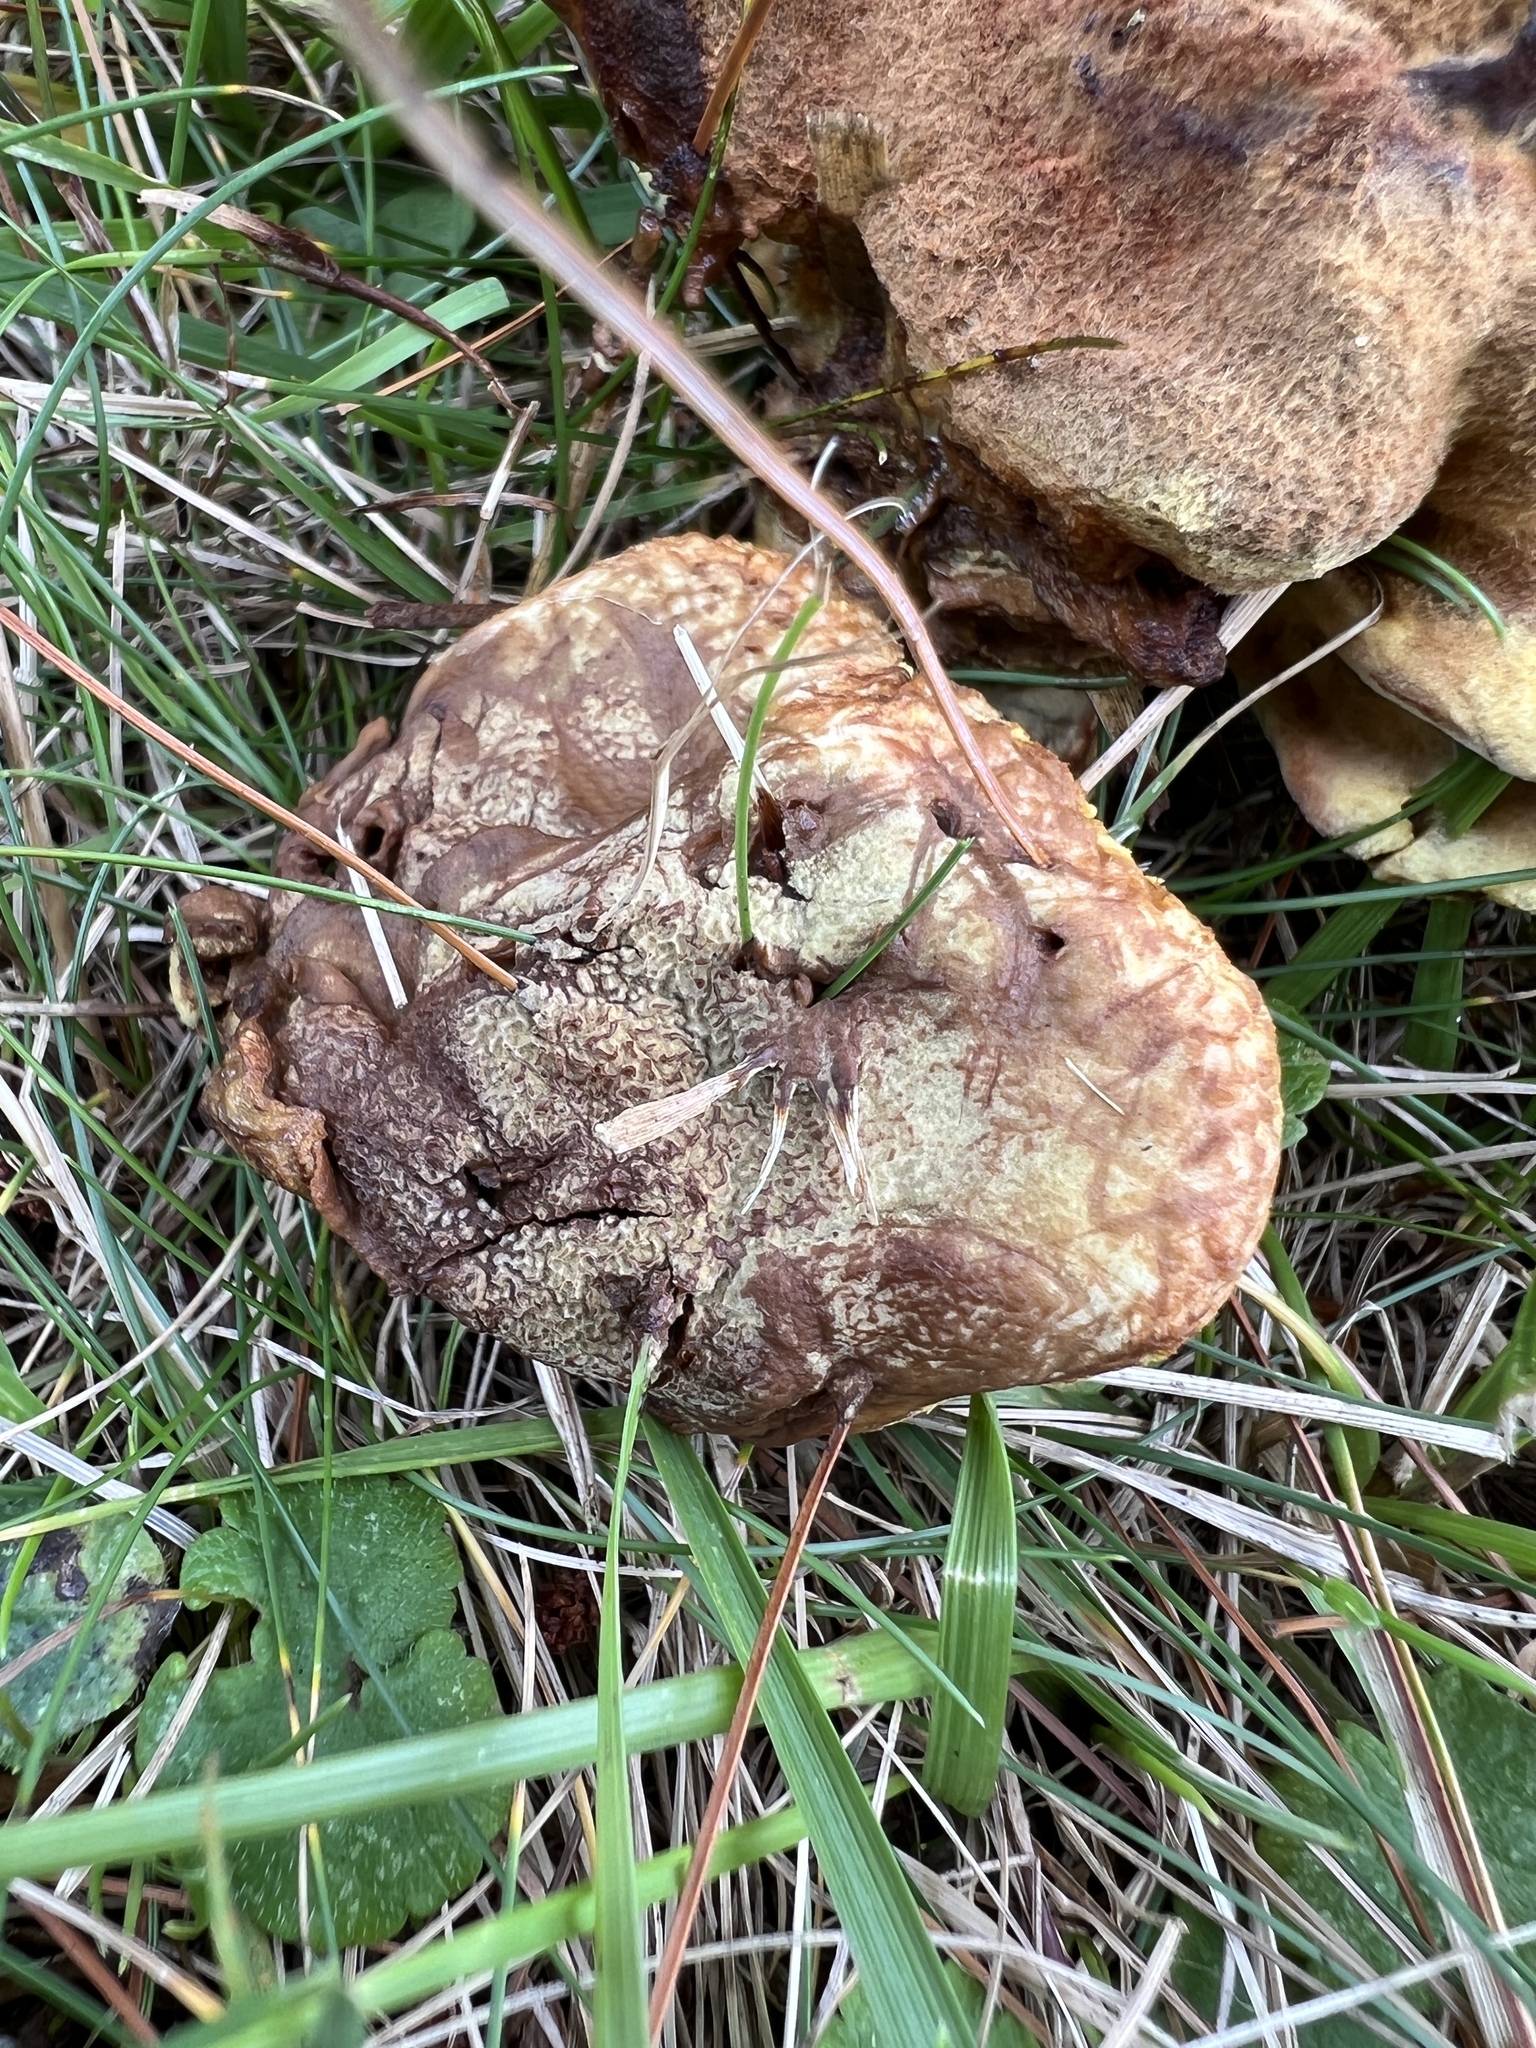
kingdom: Fungi
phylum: Basidiomycota
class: Agaricomycetes
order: Polyporales
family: Laetiporaceae
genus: Phaeolus
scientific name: Phaeolus schweinitzii
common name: Dyer's mazegill
